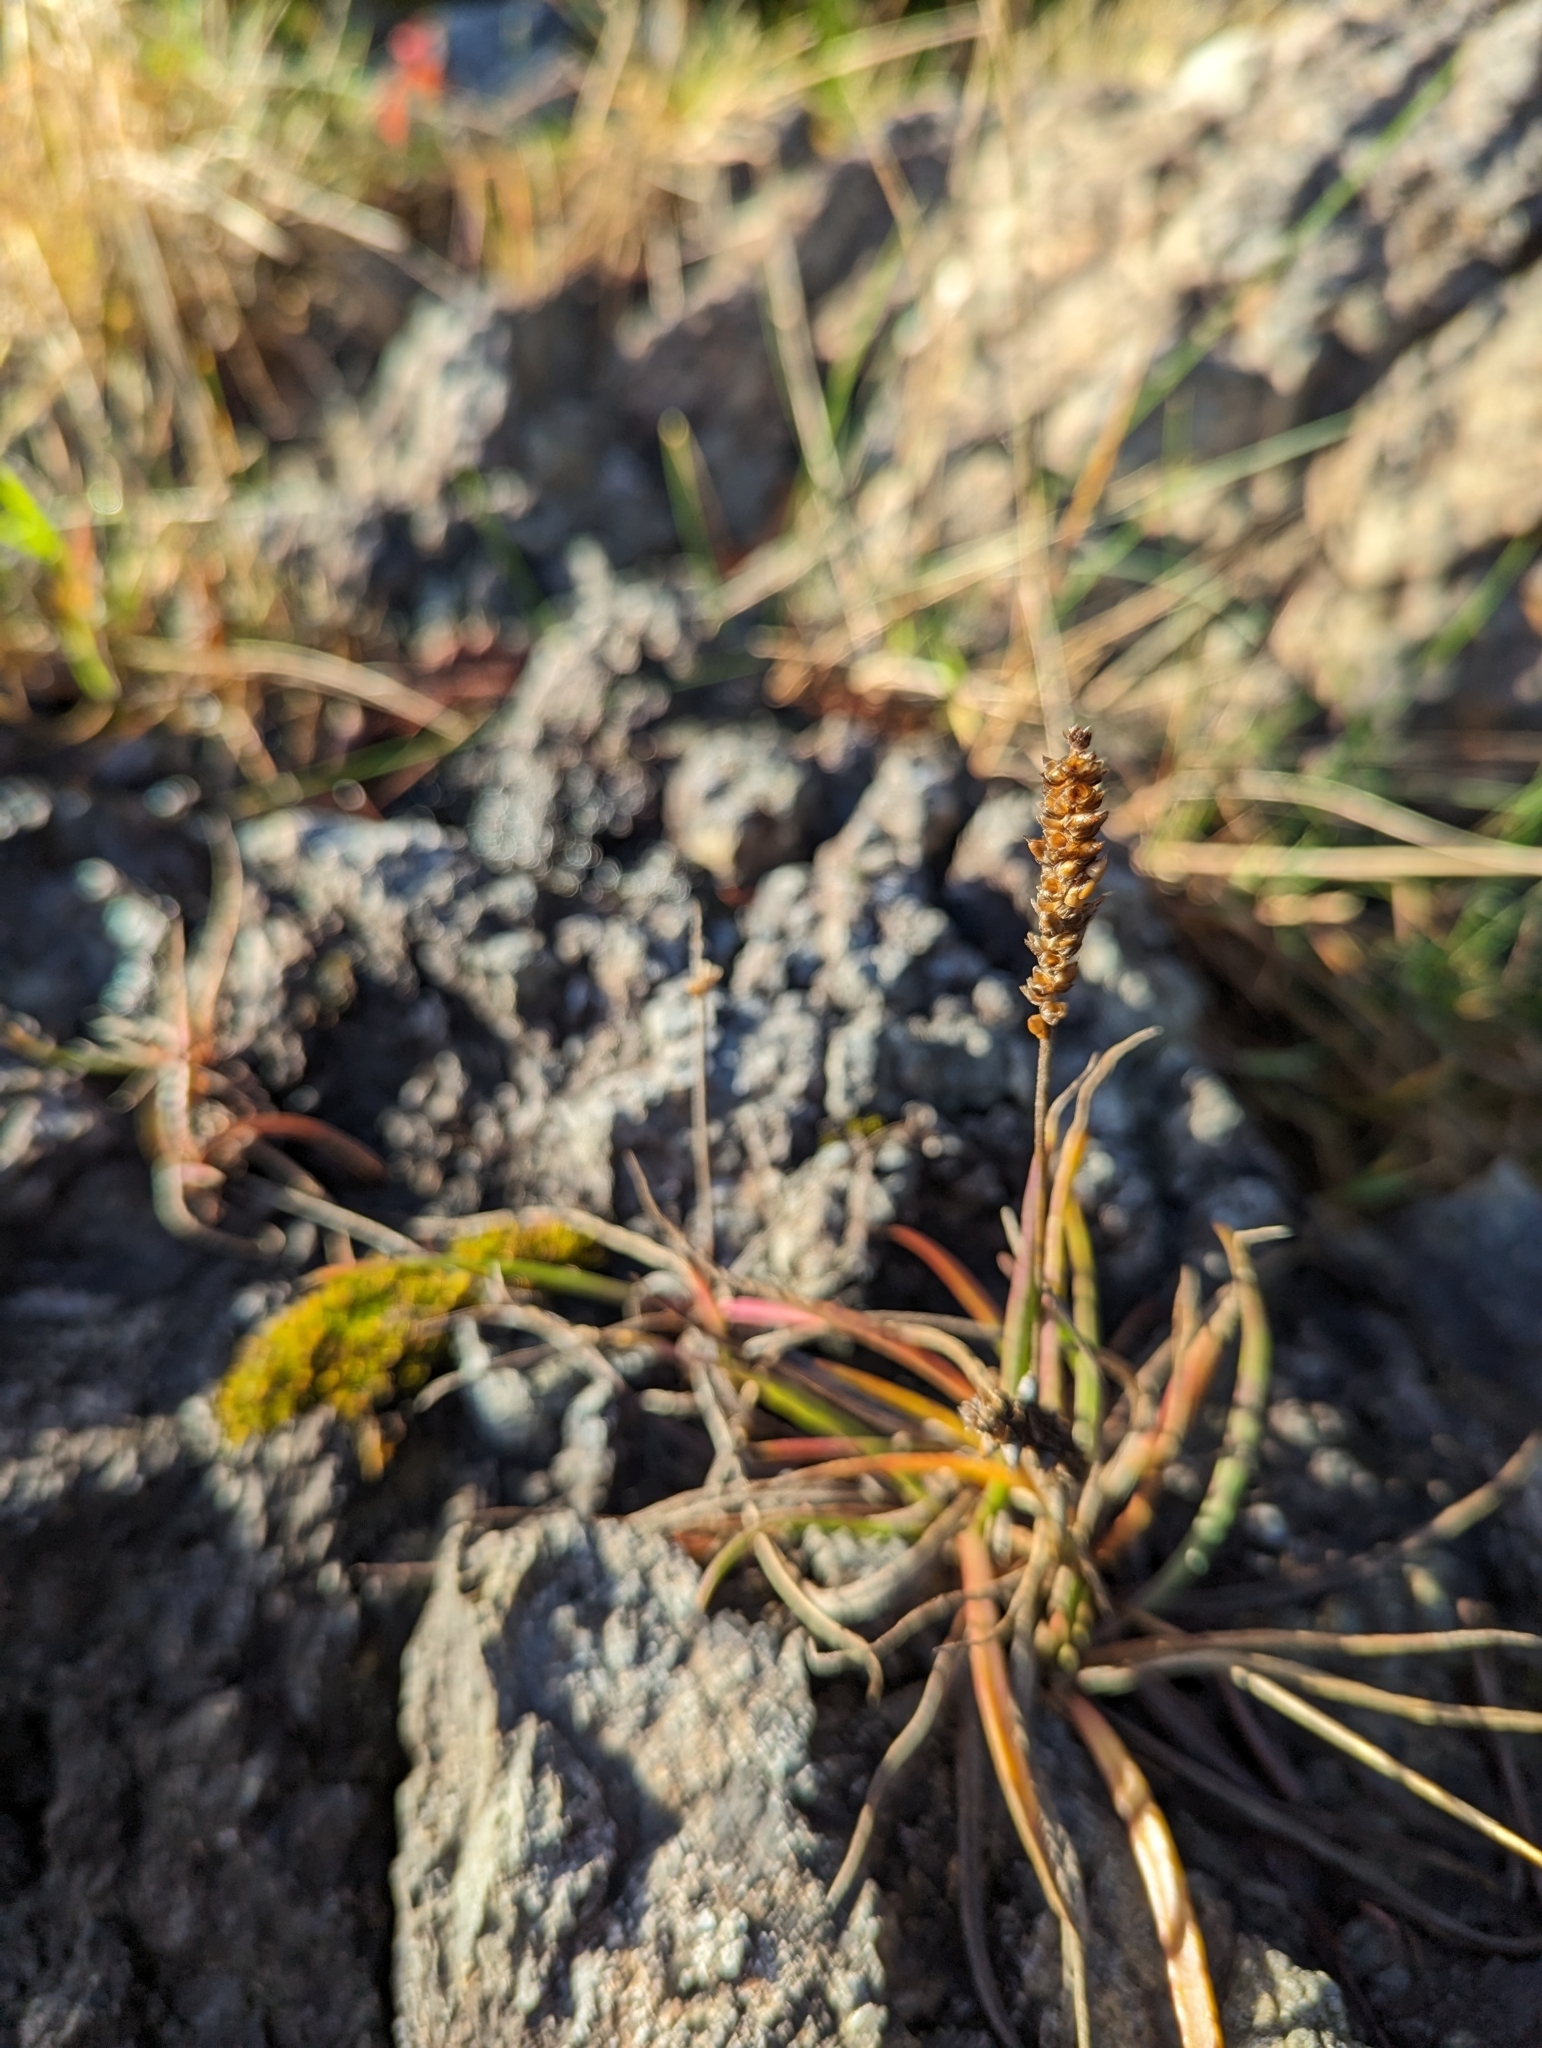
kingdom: Plantae
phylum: Tracheophyta
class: Magnoliopsida
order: Lamiales
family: Plantaginaceae
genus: Plantago
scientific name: Plantago maritima
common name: Sea plantain
